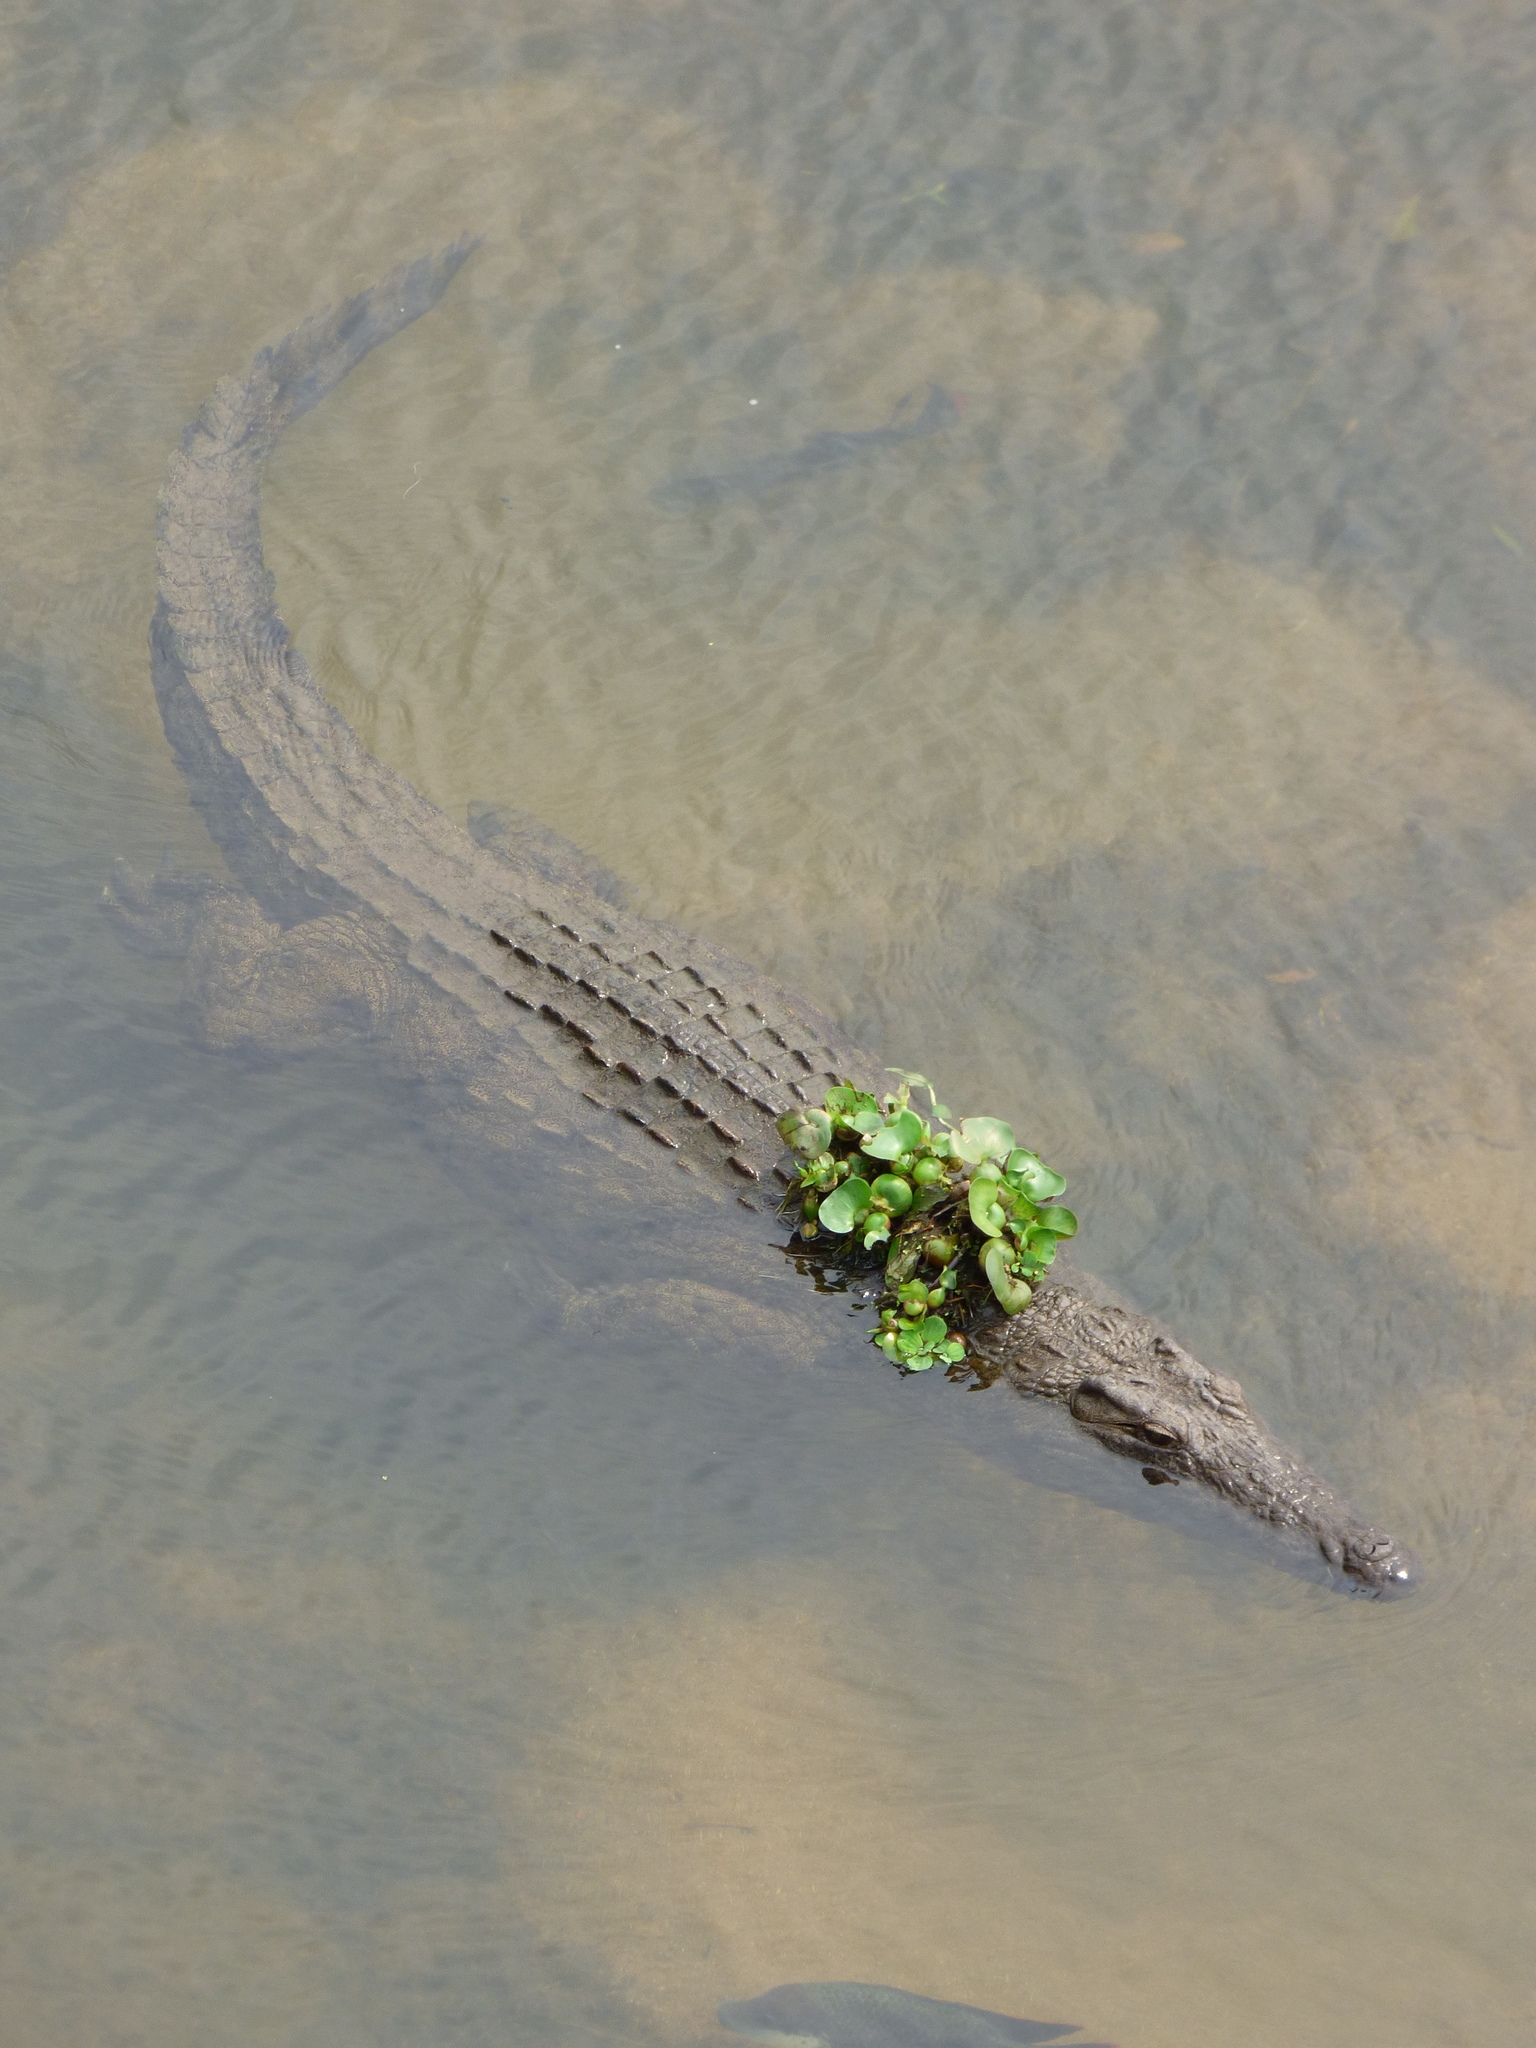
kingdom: Animalia
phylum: Chordata
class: Crocodylia
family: Crocodylidae
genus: Crocodylus
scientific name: Crocodylus niloticus
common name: Nile crocodile
